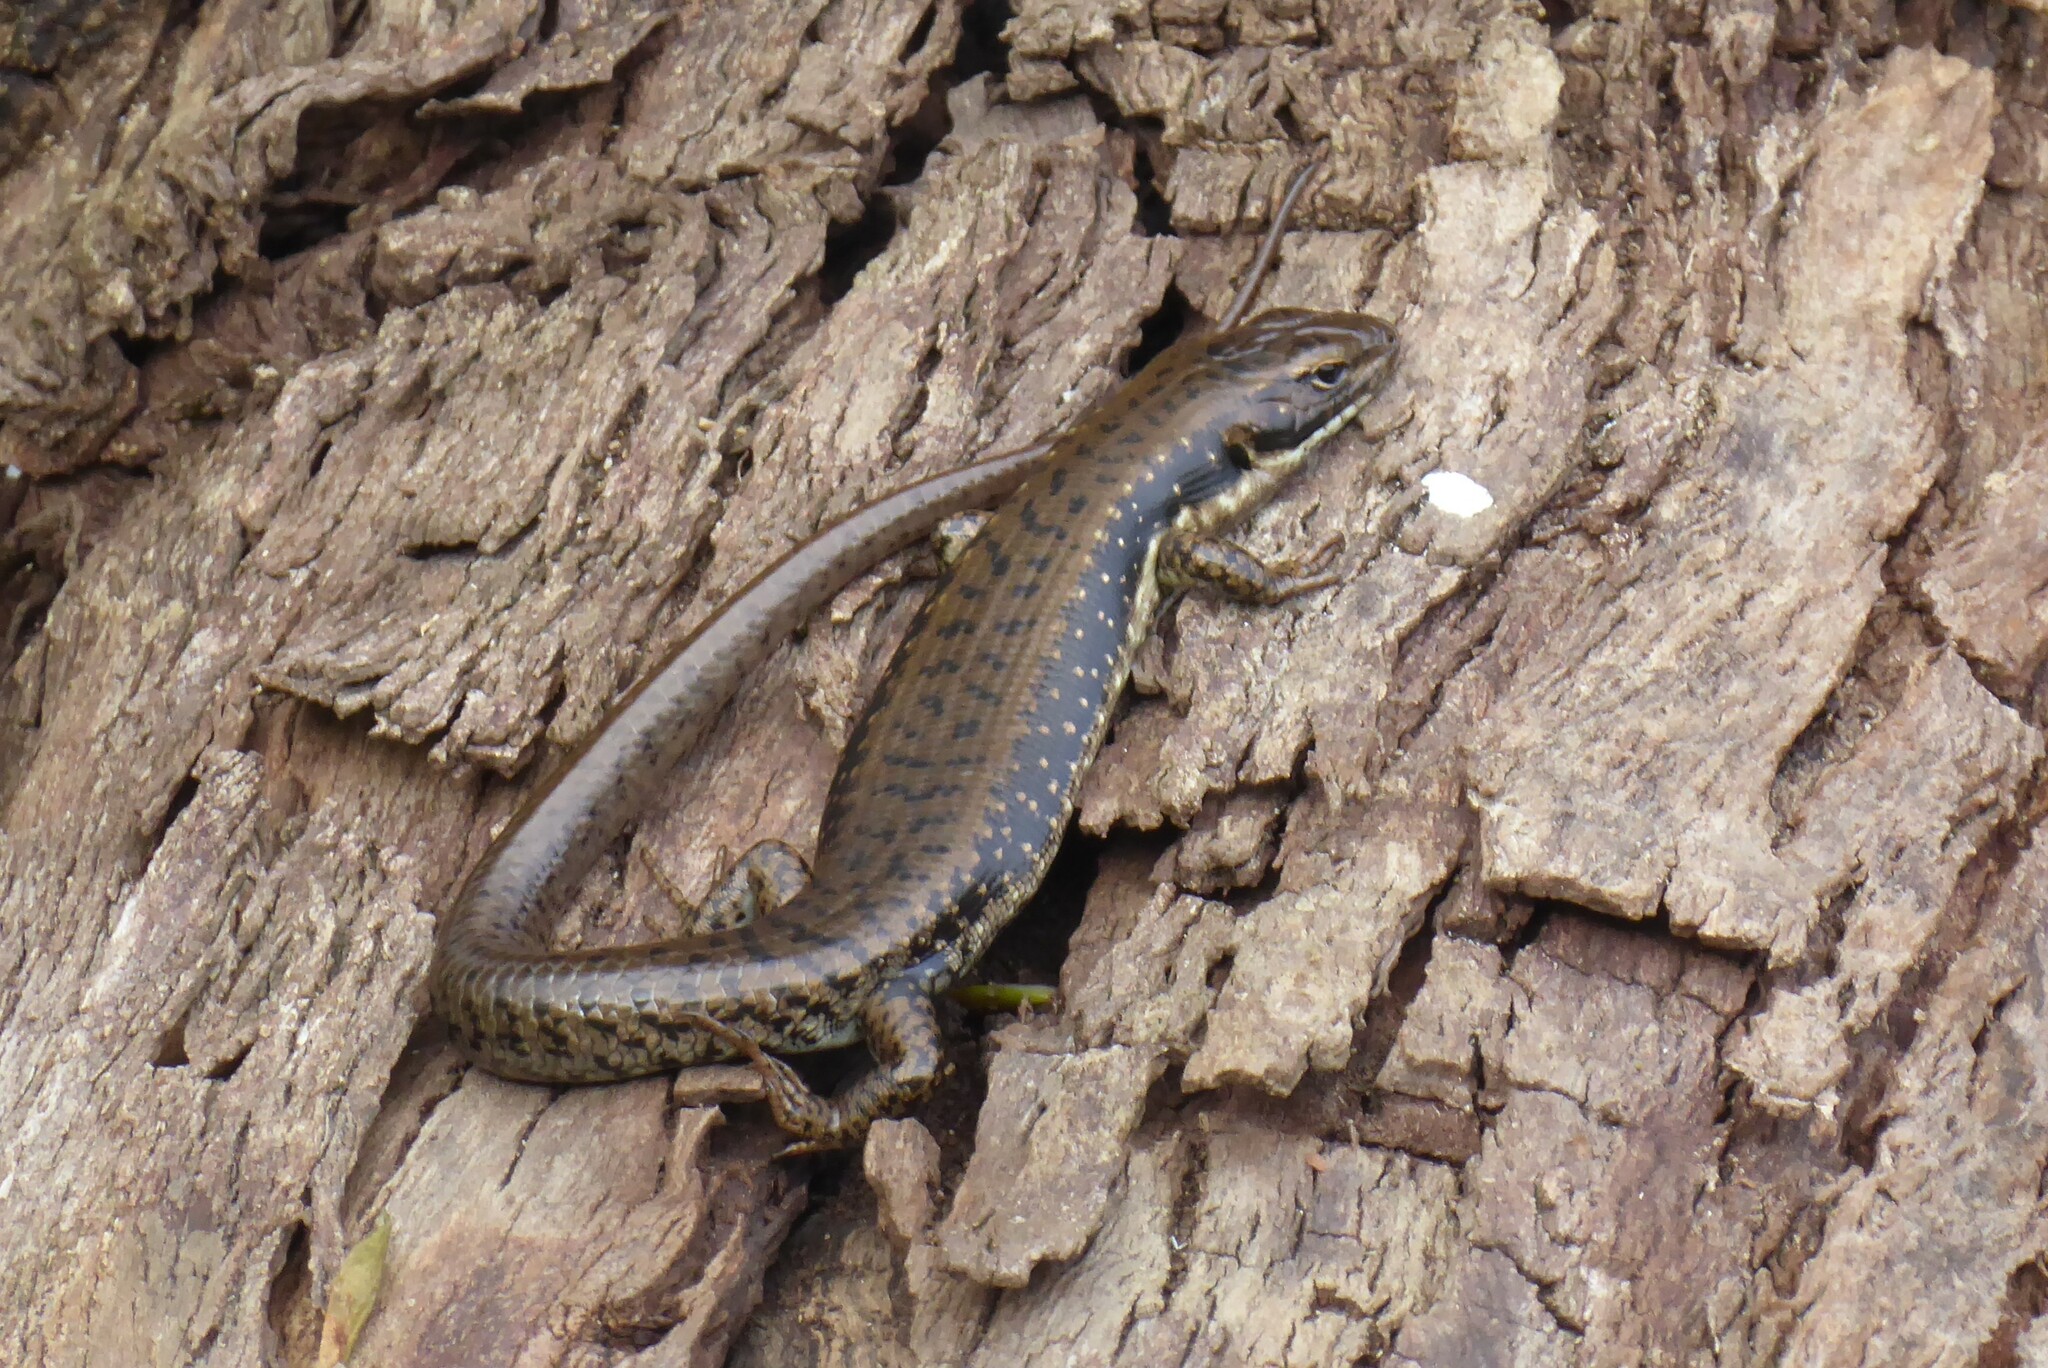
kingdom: Animalia
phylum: Chordata
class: Squamata
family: Scincidae
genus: Eulamprus
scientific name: Eulamprus tympanum
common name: Cool-temperate water-skink
